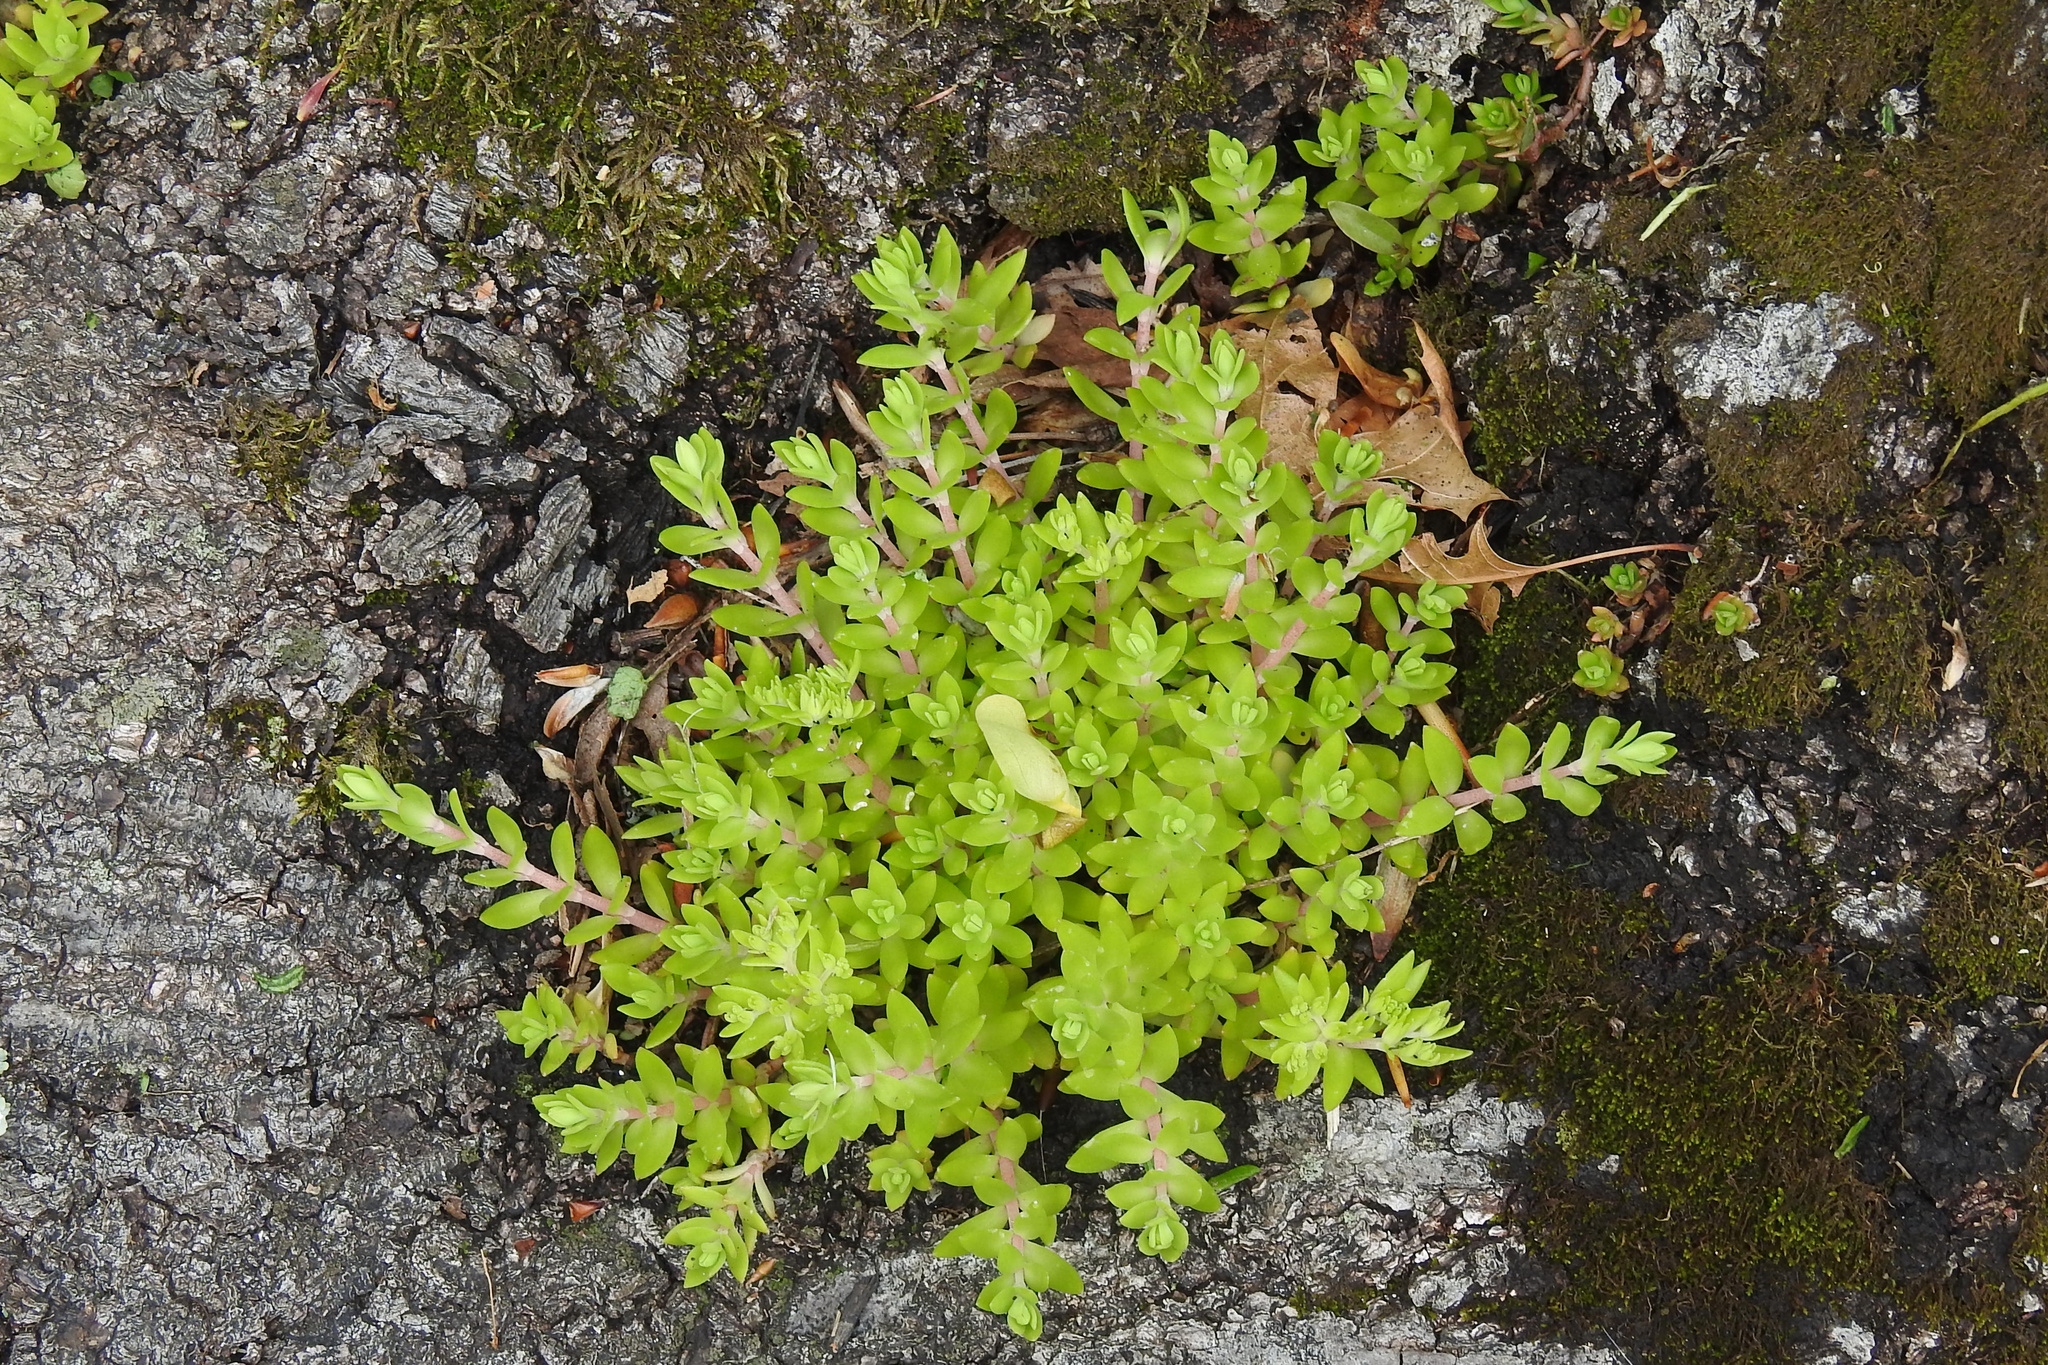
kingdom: Plantae
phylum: Tracheophyta
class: Magnoliopsida
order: Saxifragales
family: Crassulaceae
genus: Sedum
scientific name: Sedum sarmentosum
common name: Stringy stonecrop
